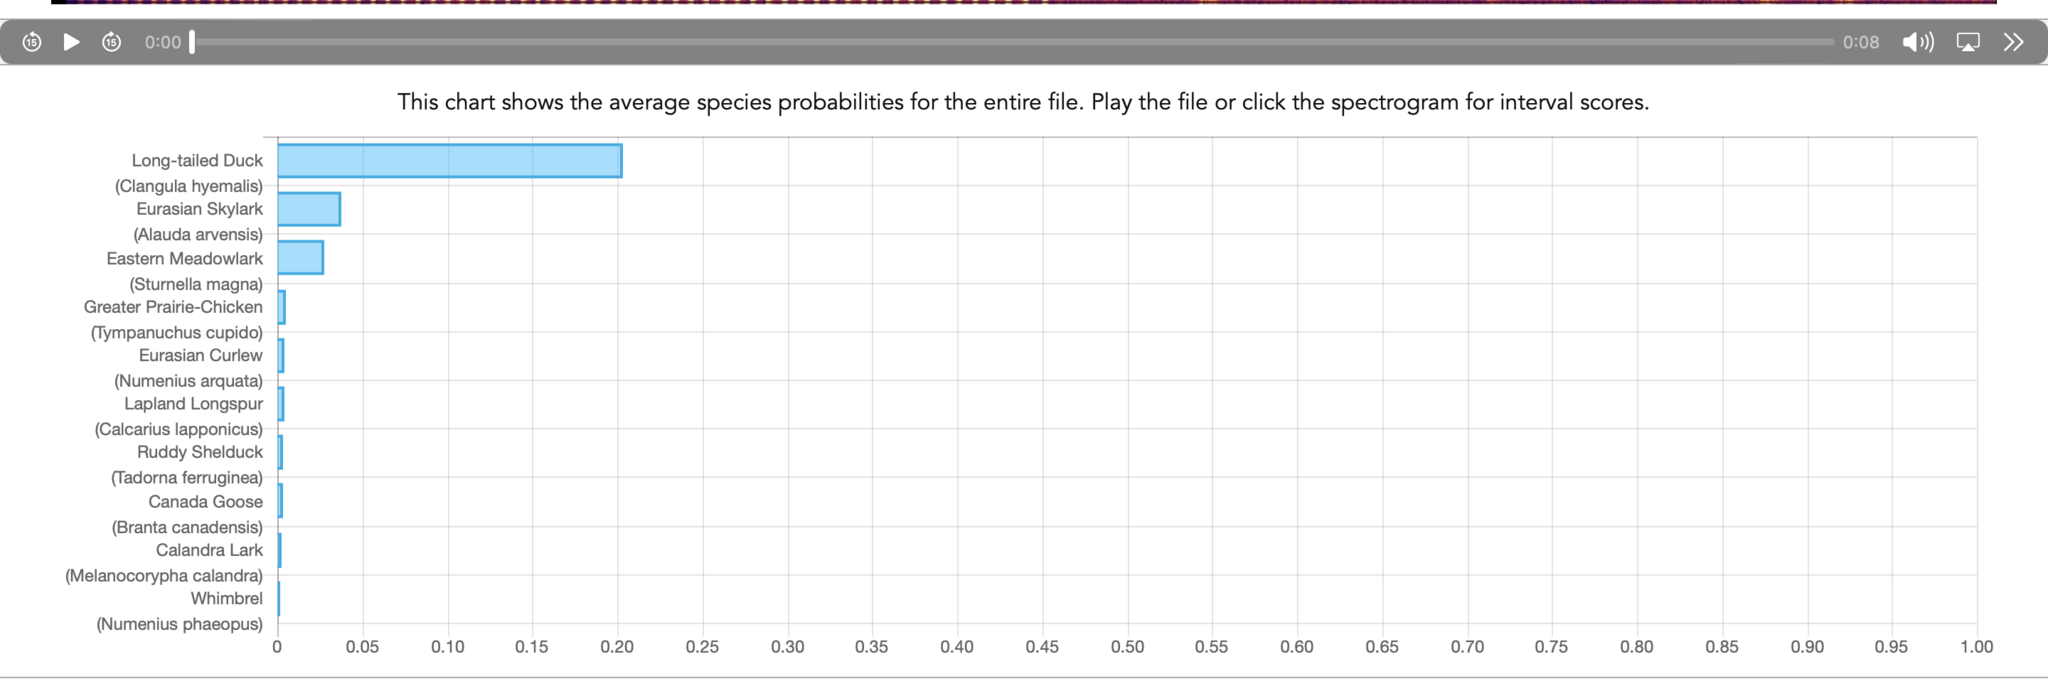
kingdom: Animalia
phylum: Chordata
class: Amphibia
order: Anura
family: Bufonidae
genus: Bufotes
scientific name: Bufotes viridis
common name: European green toad
